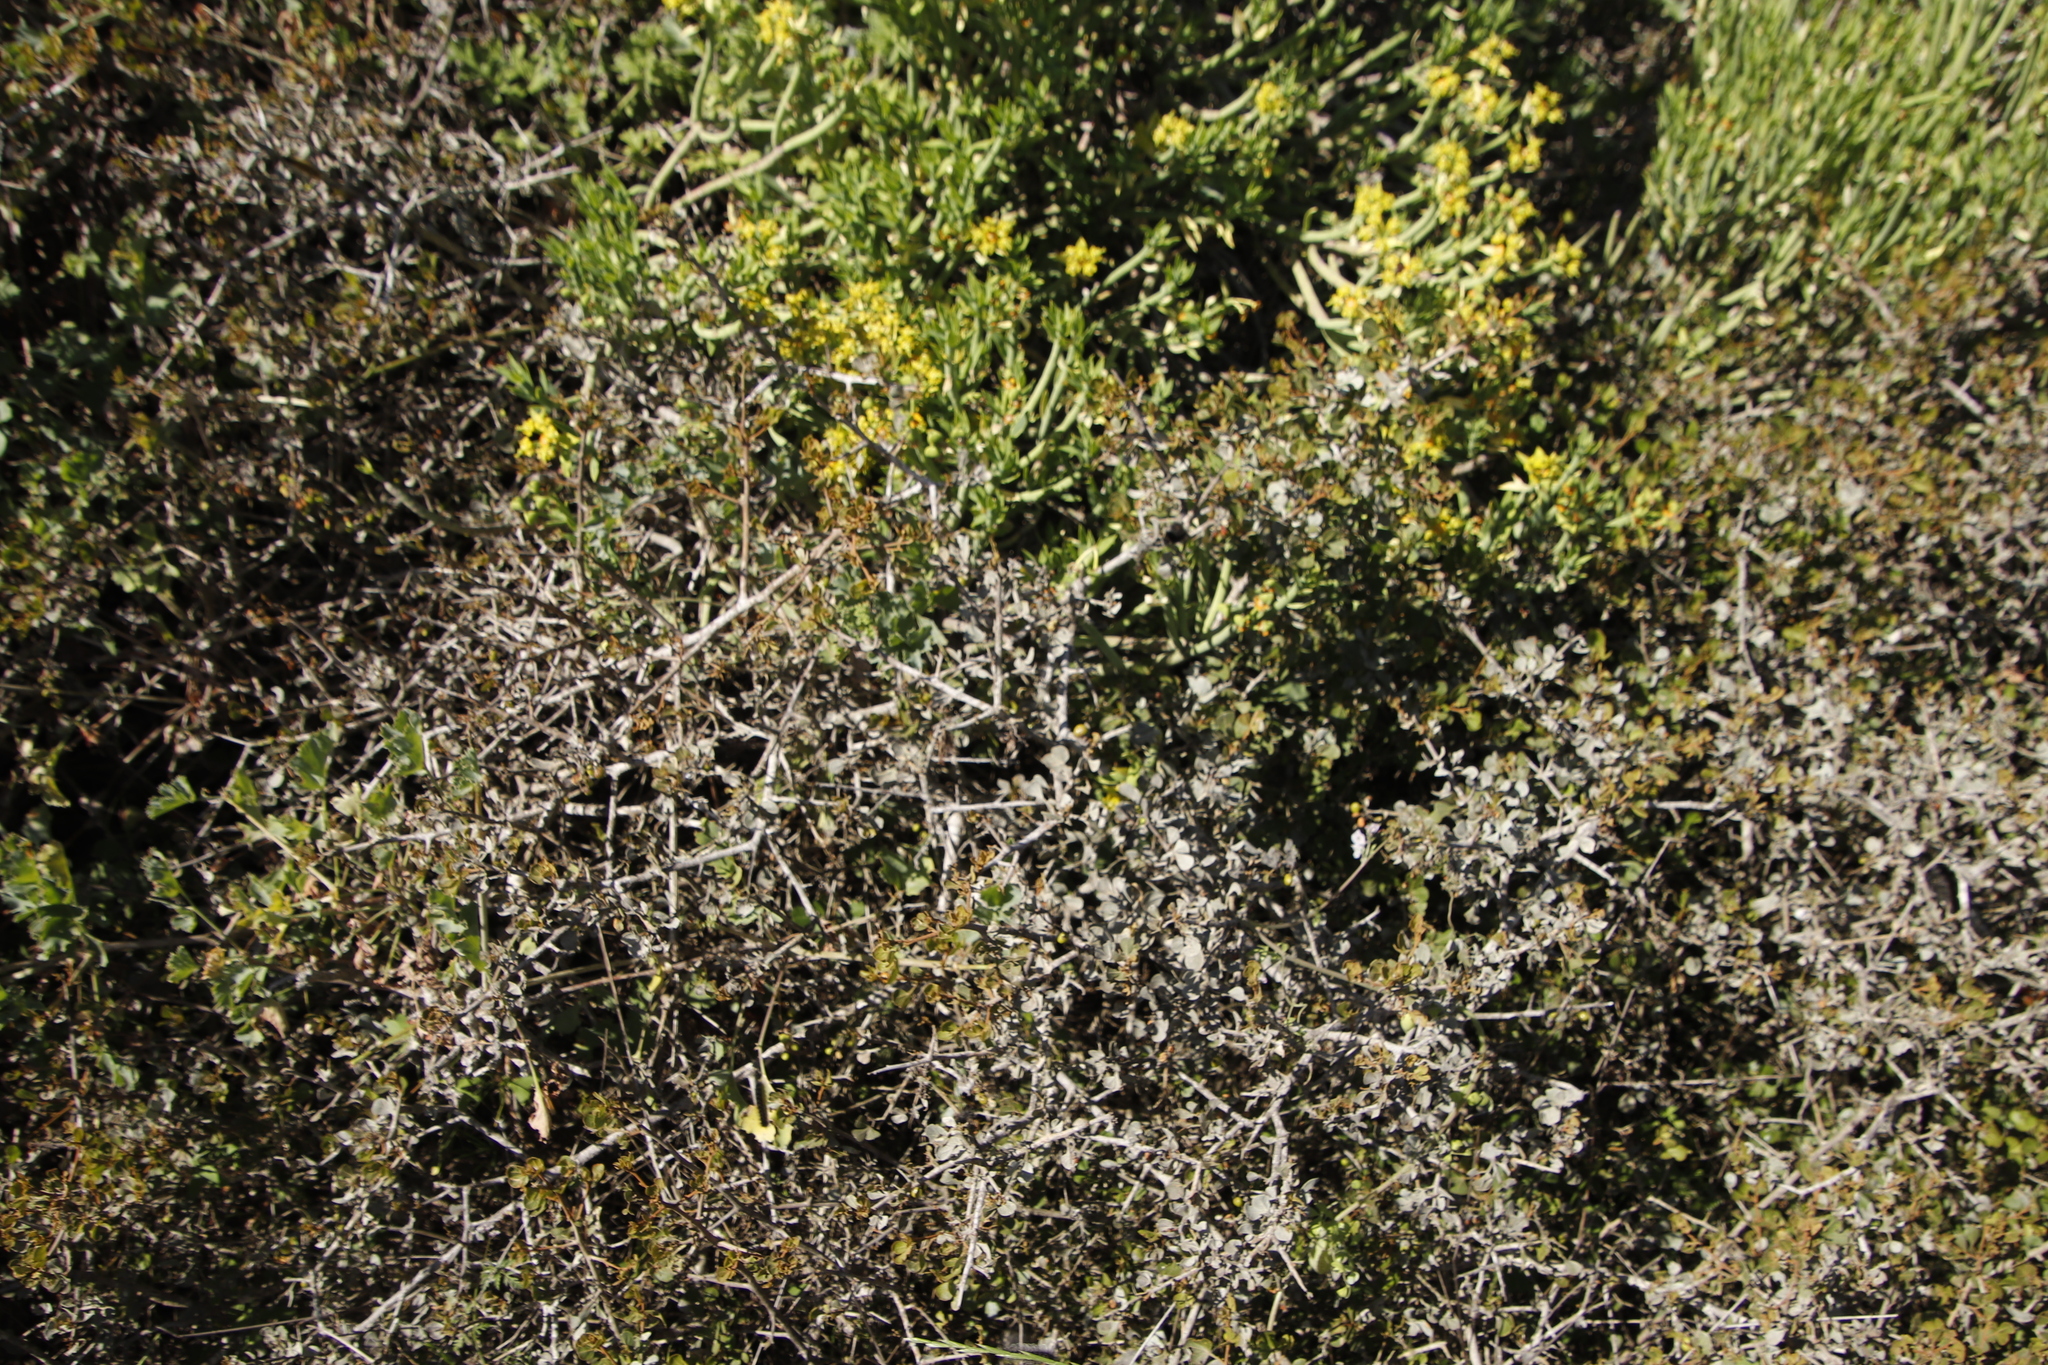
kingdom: Plantae
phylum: Tracheophyta
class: Magnoliopsida
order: Sapindales
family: Anacardiaceae
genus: Searsia
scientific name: Searsia glauca
